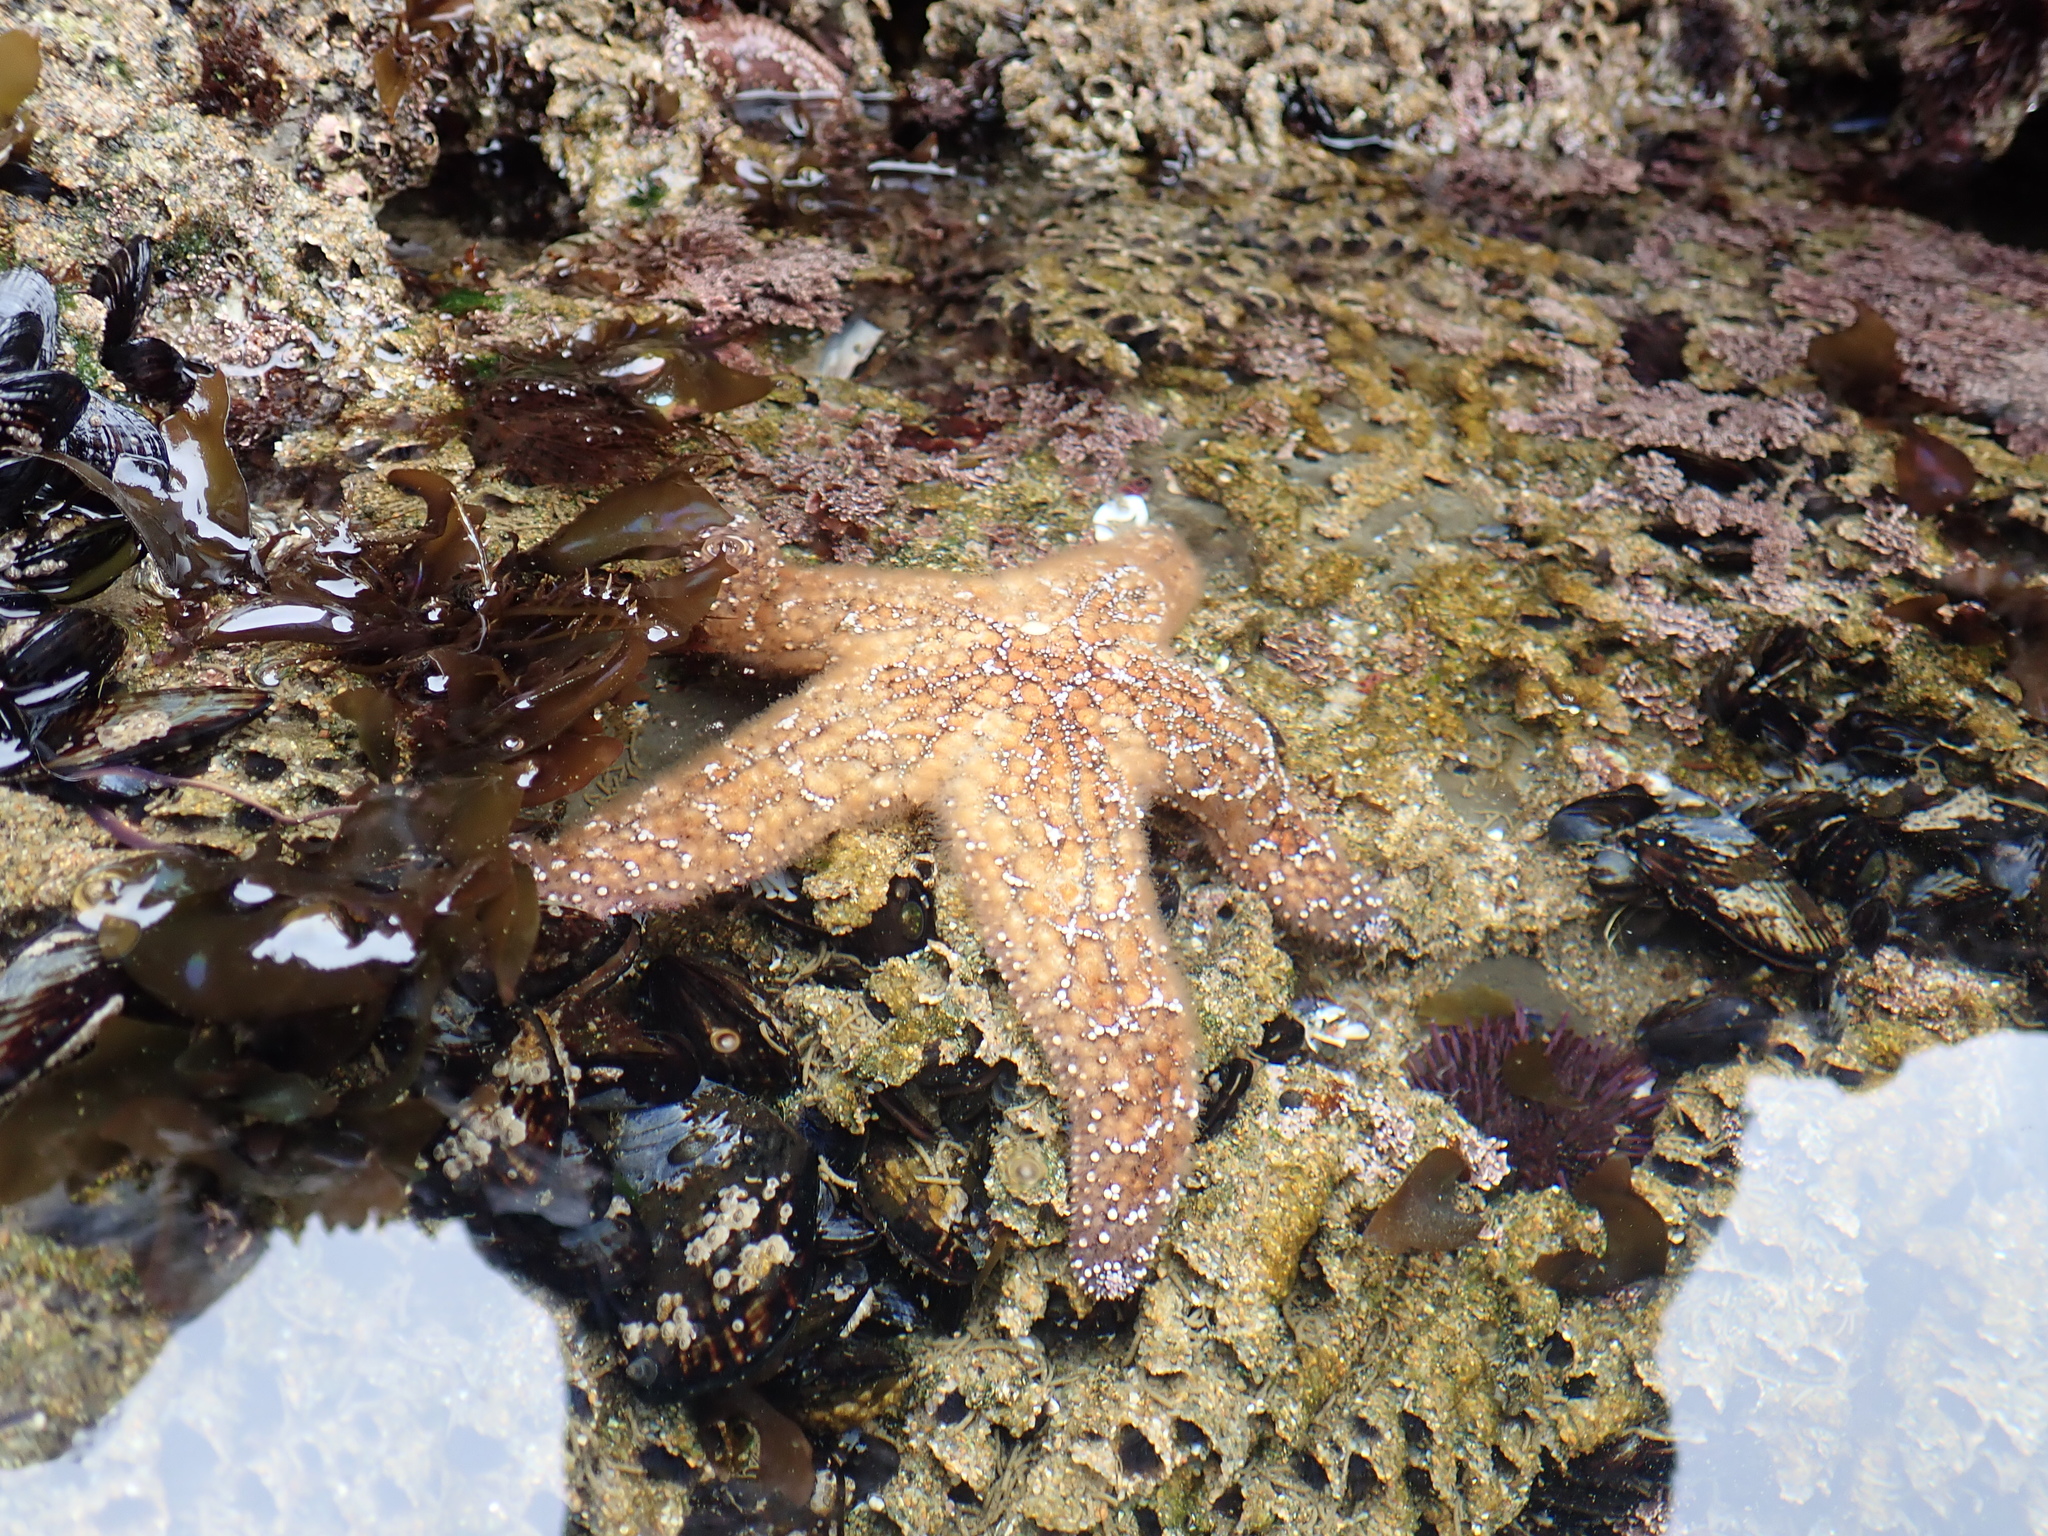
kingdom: Animalia
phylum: Echinodermata
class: Asteroidea
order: Forcipulatida
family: Asteriidae
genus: Pisaster
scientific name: Pisaster ochraceus
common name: Ochre stars
